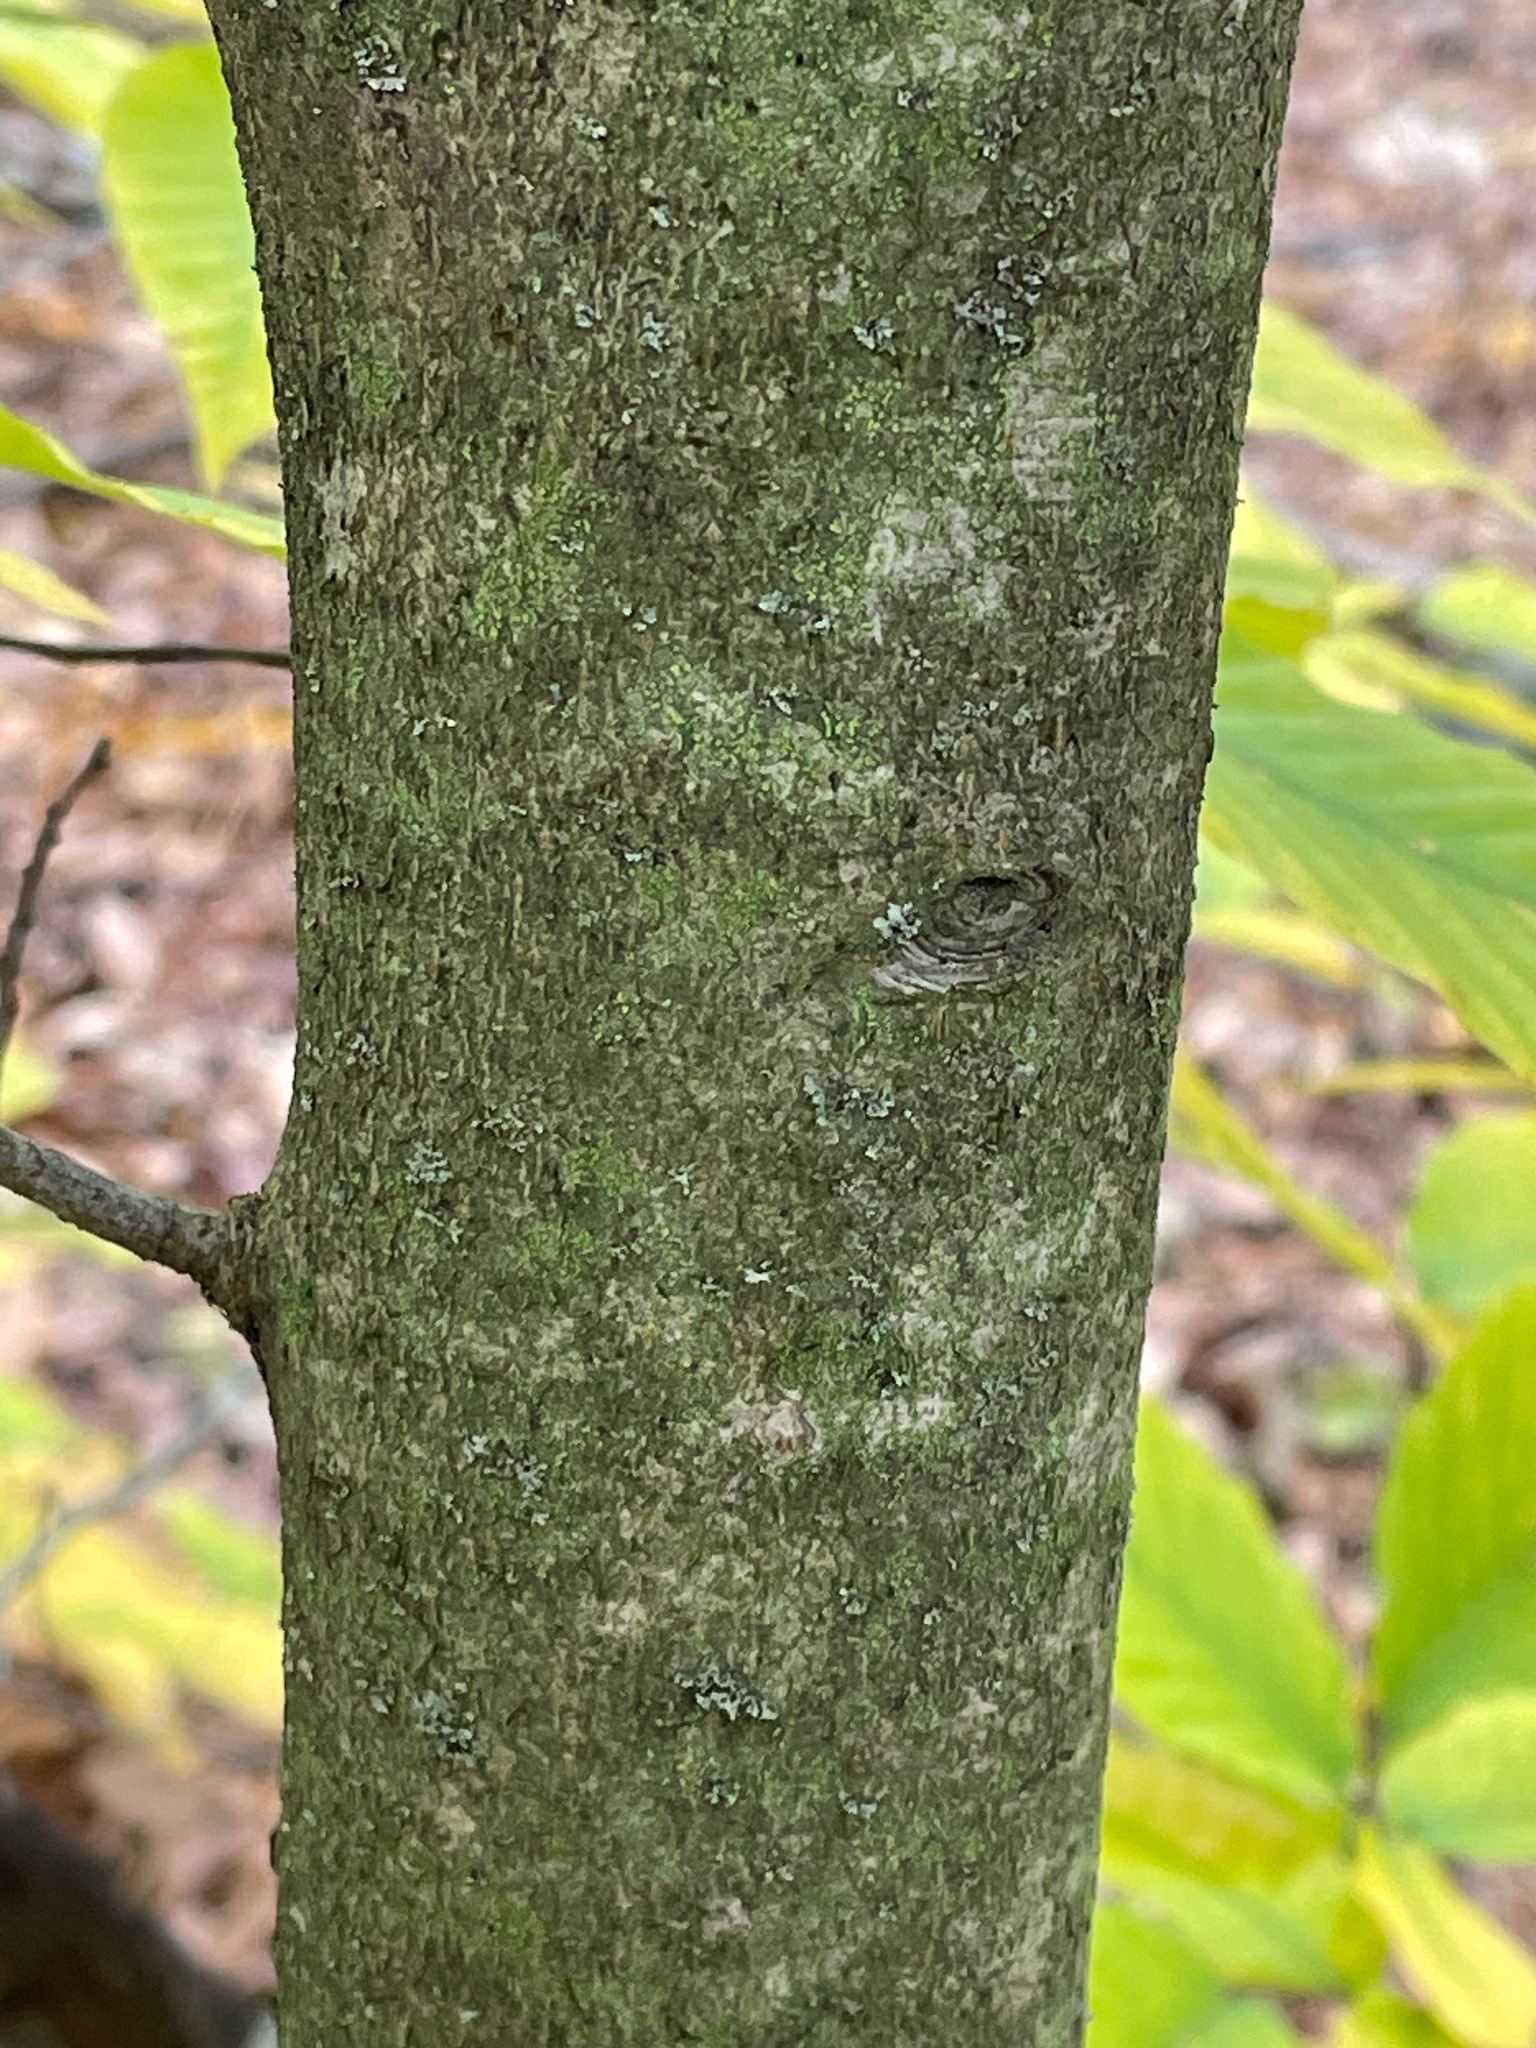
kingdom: Plantae
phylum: Tracheophyta
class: Magnoliopsida
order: Fagales
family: Fagaceae
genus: Fagus
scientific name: Fagus grandifolia
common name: American beech
